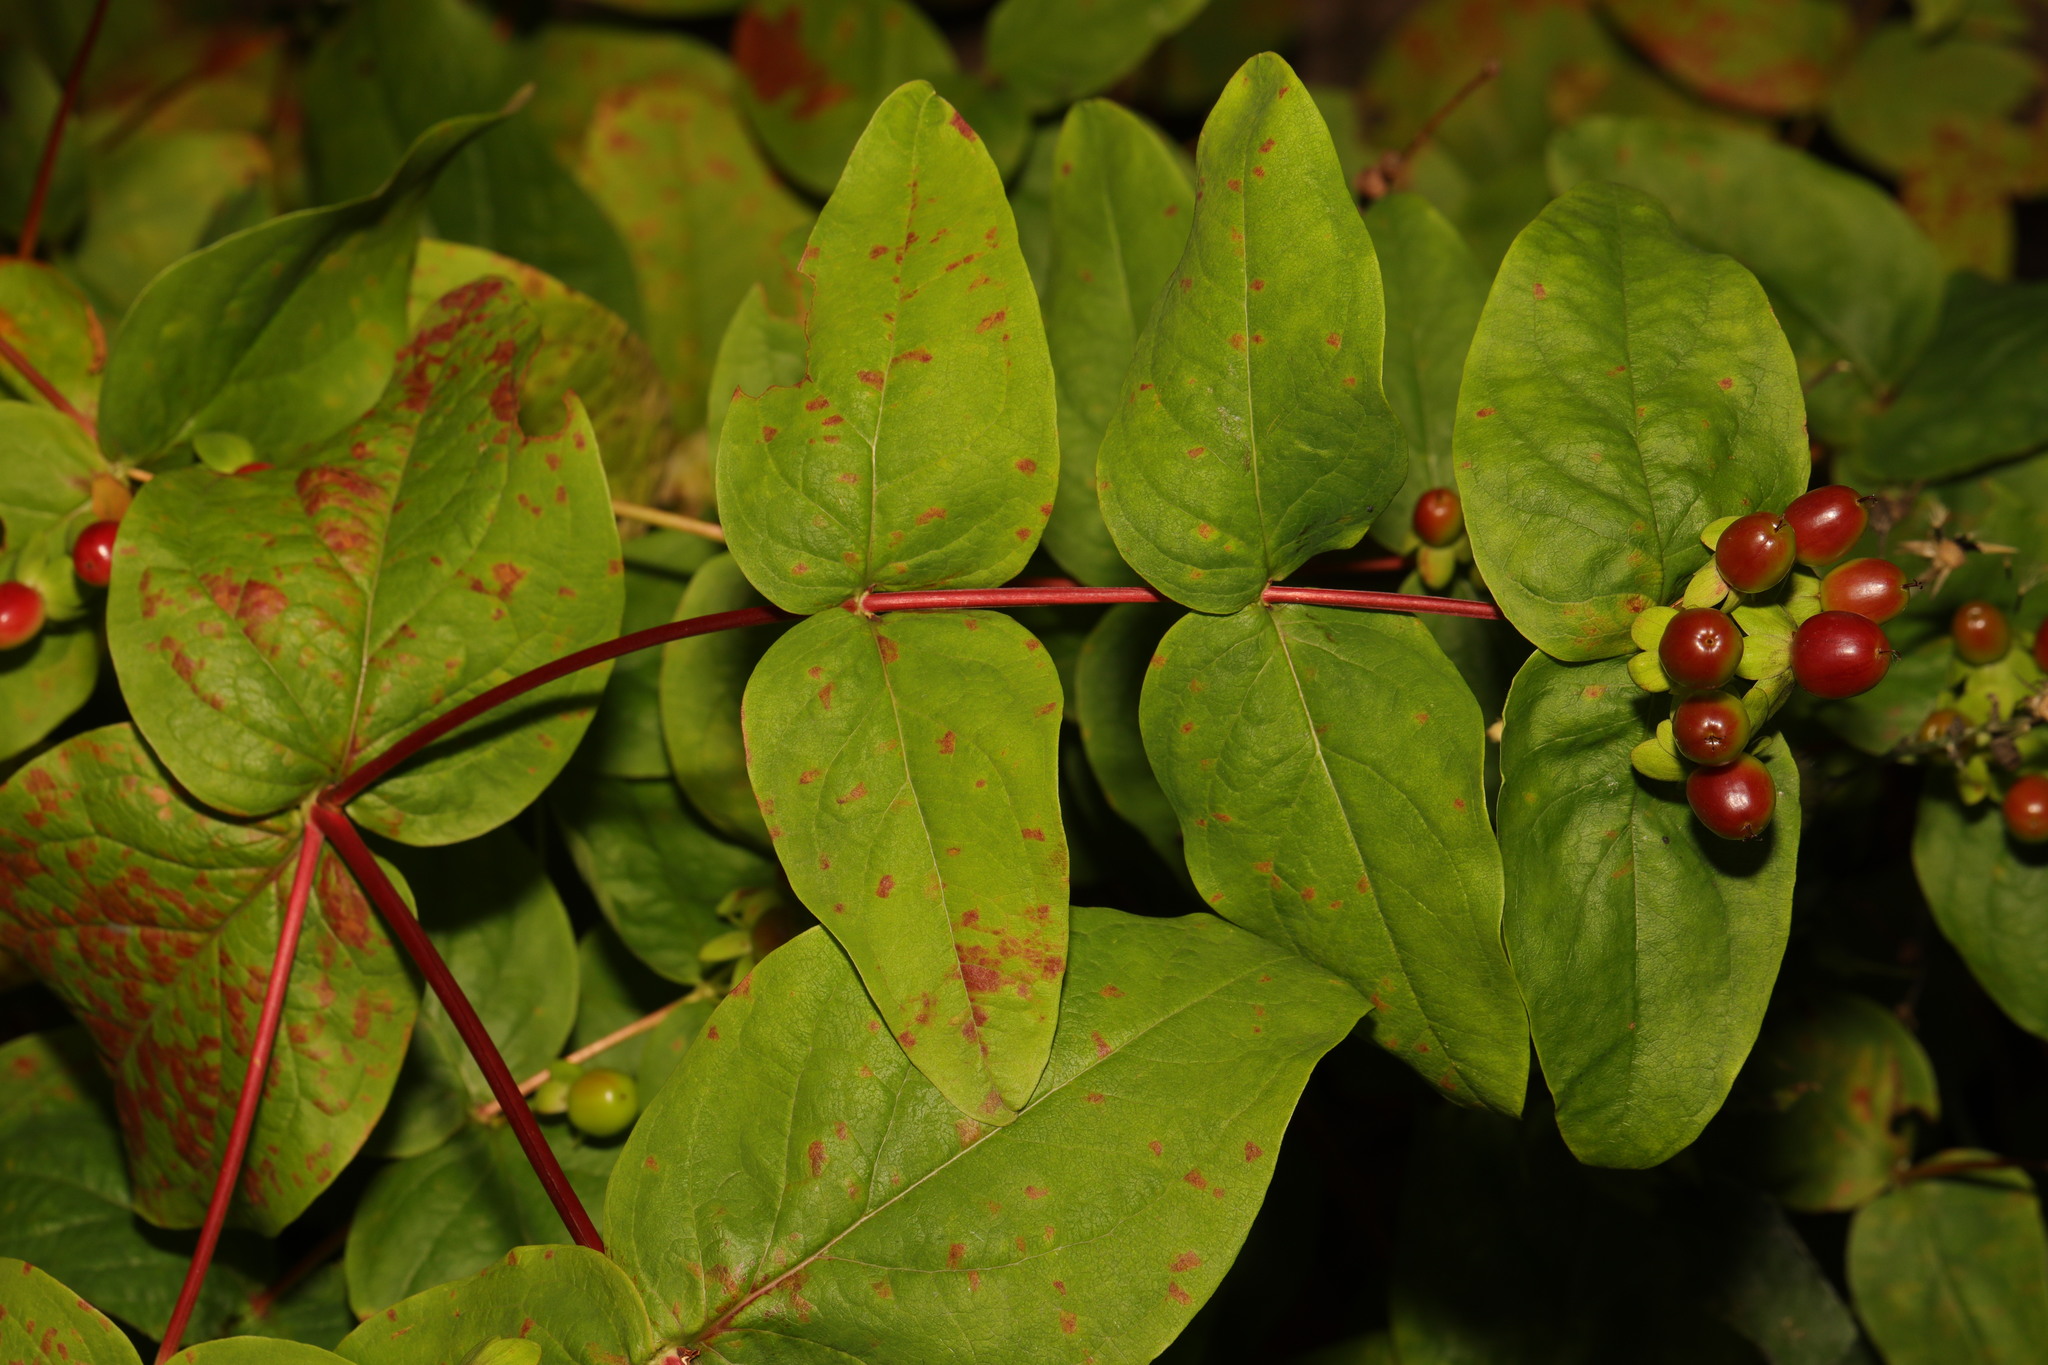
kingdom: Plantae
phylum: Tracheophyta
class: Magnoliopsida
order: Malpighiales
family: Hypericaceae
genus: Hypericum
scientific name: Hypericum androsaemum
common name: Sweet-amber
